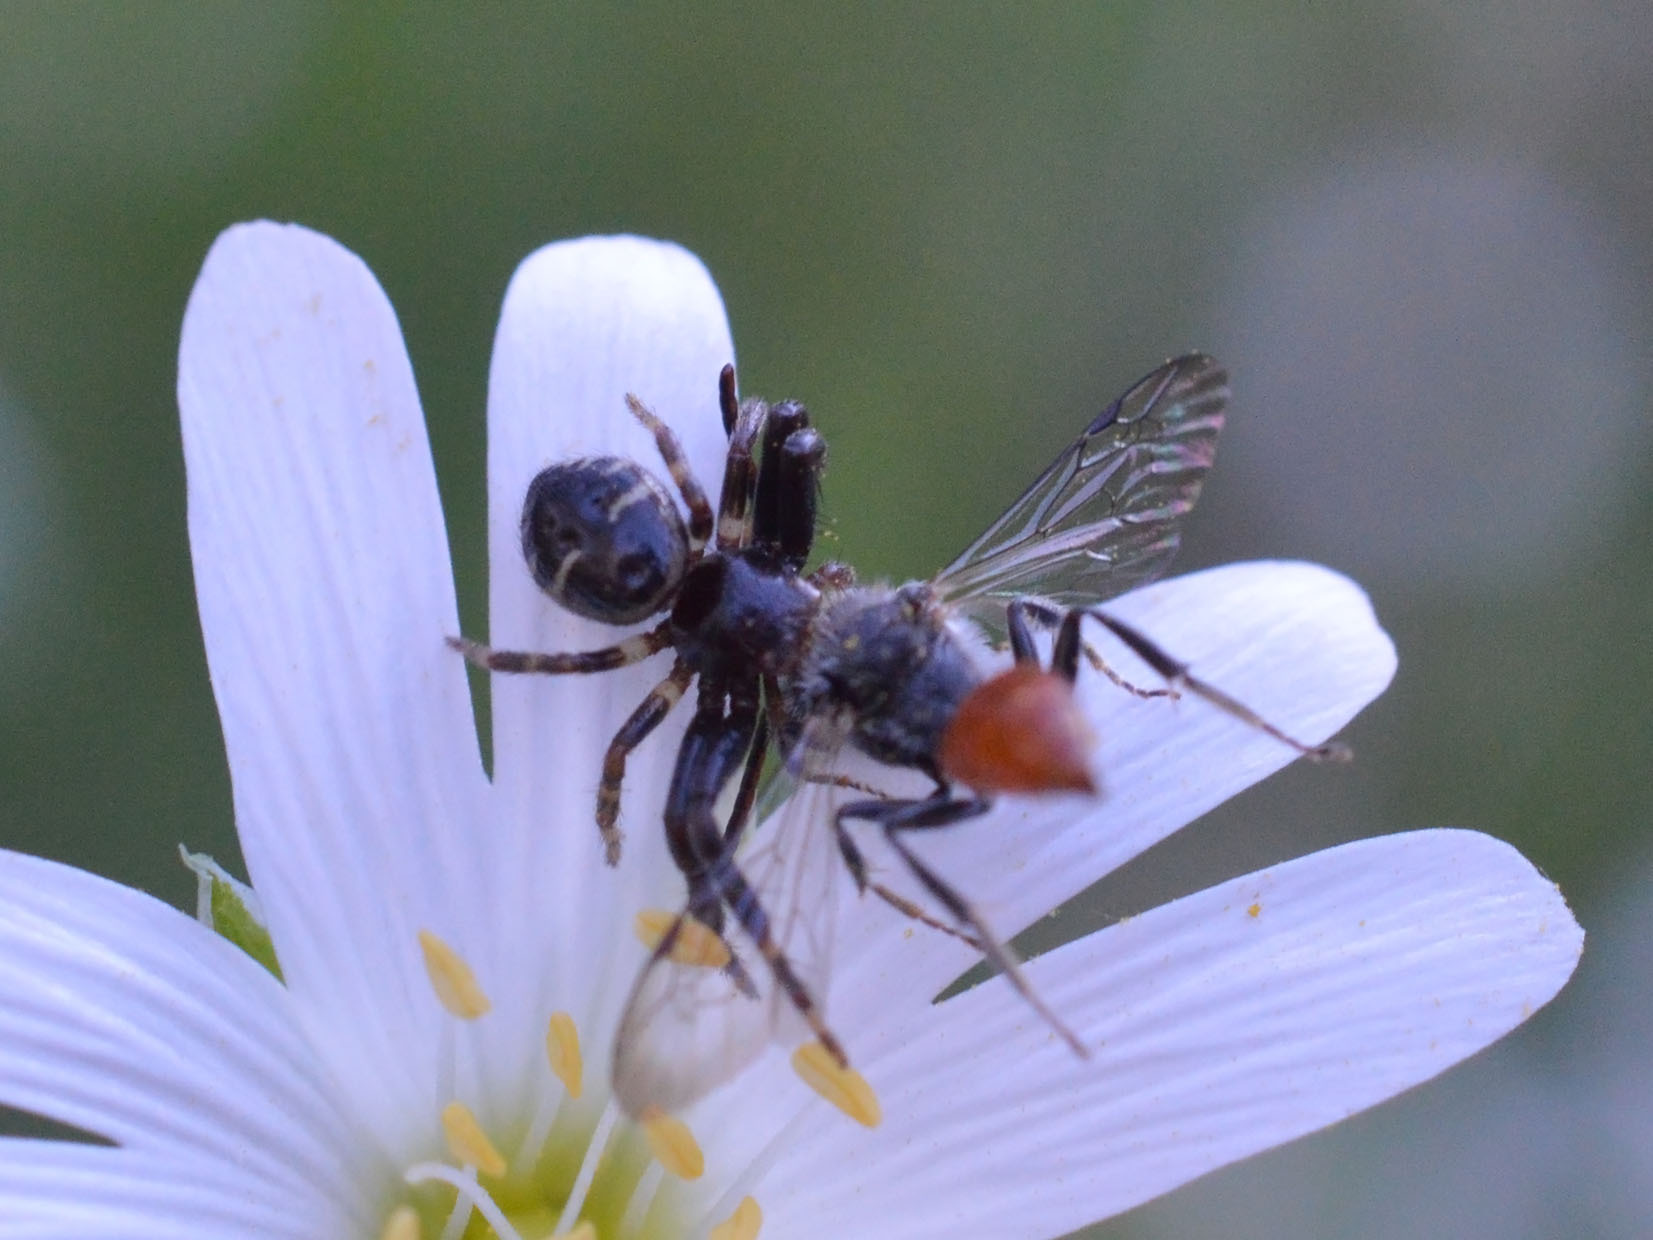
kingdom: Animalia
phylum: Arthropoda
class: Arachnida
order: Araneae
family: Thomisidae
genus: Synema
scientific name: Synema globosum
